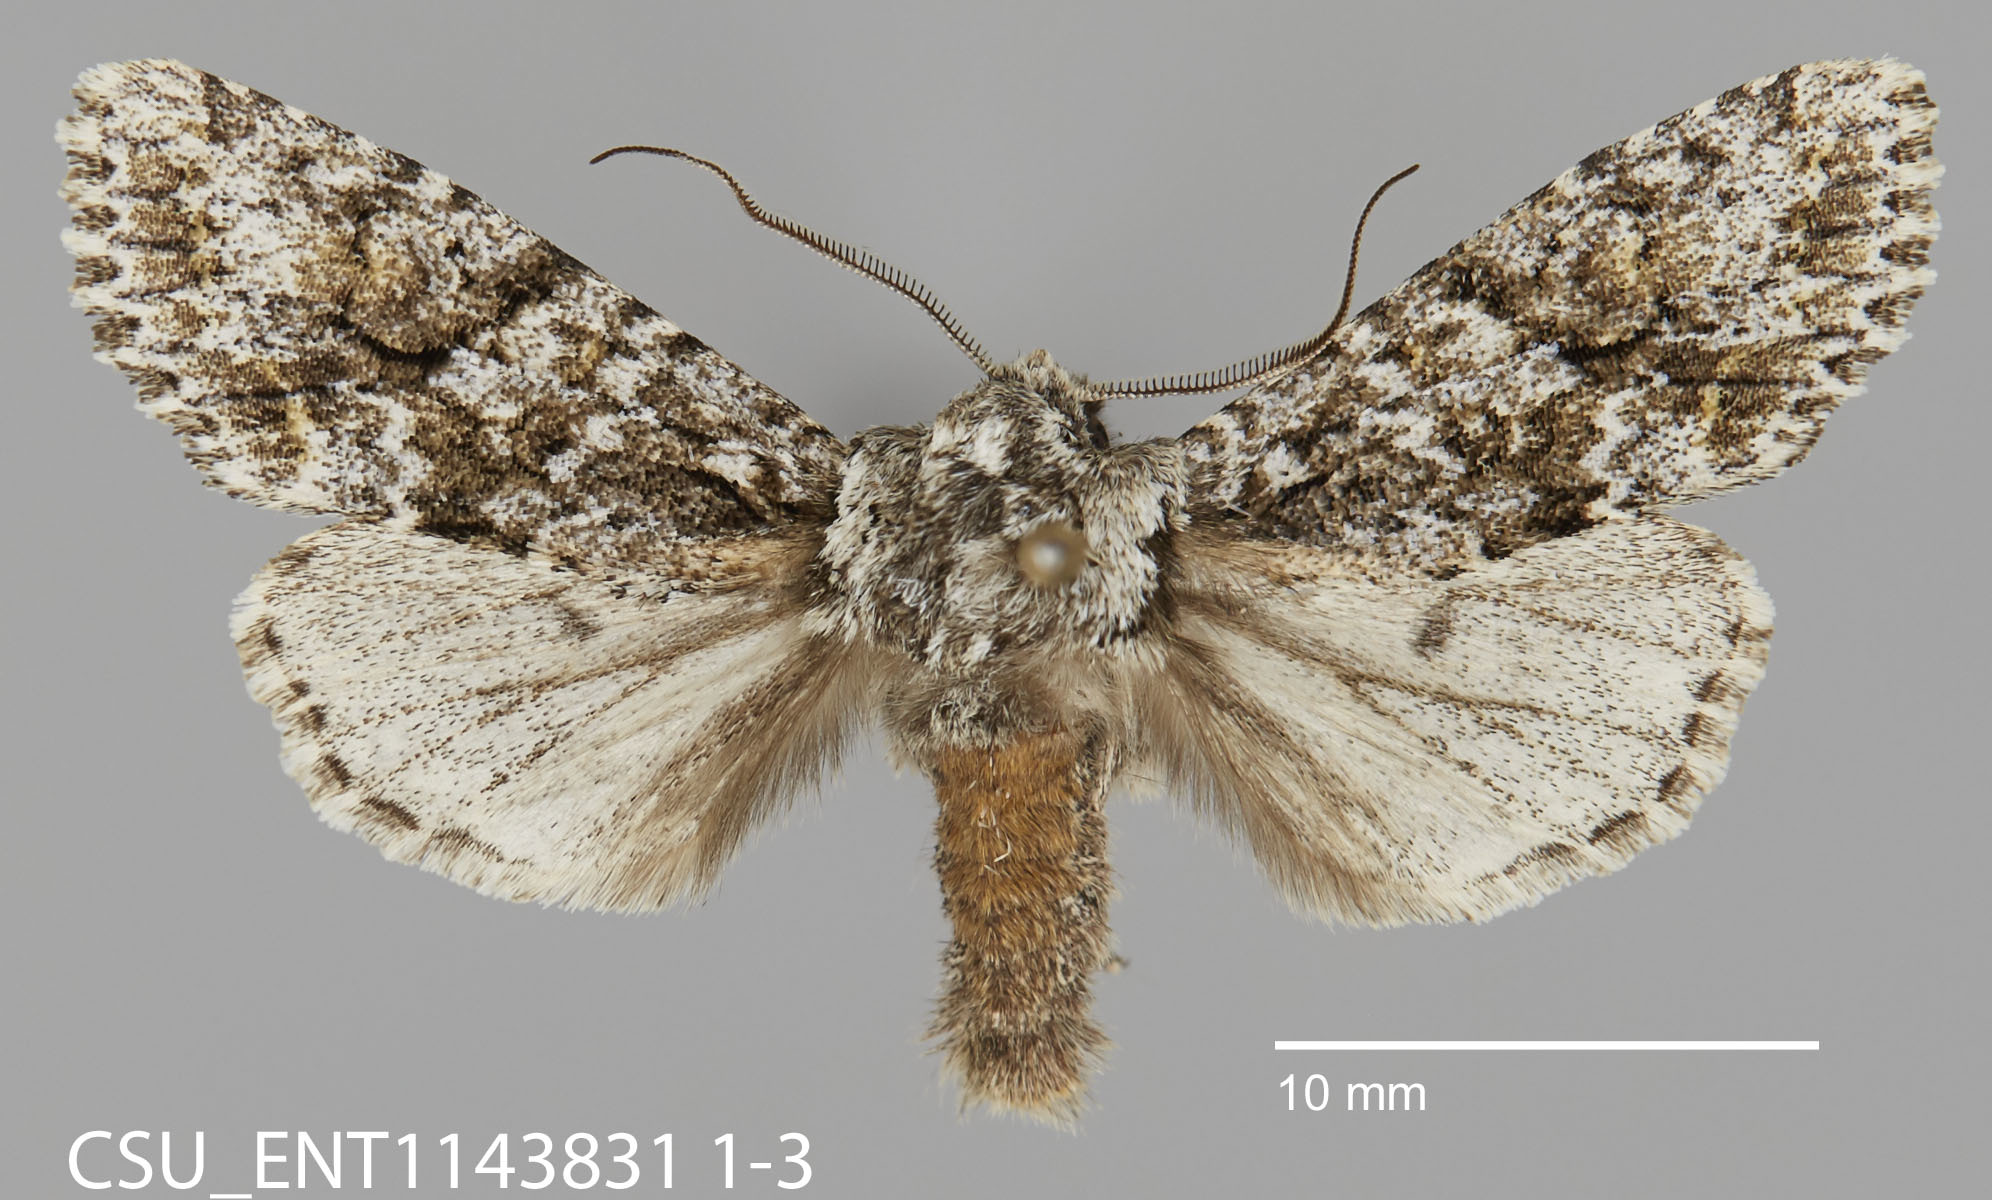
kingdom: Animalia
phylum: Arthropoda
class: Insecta
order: Lepidoptera
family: Noctuidae
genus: Egira
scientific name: Egira februalis
